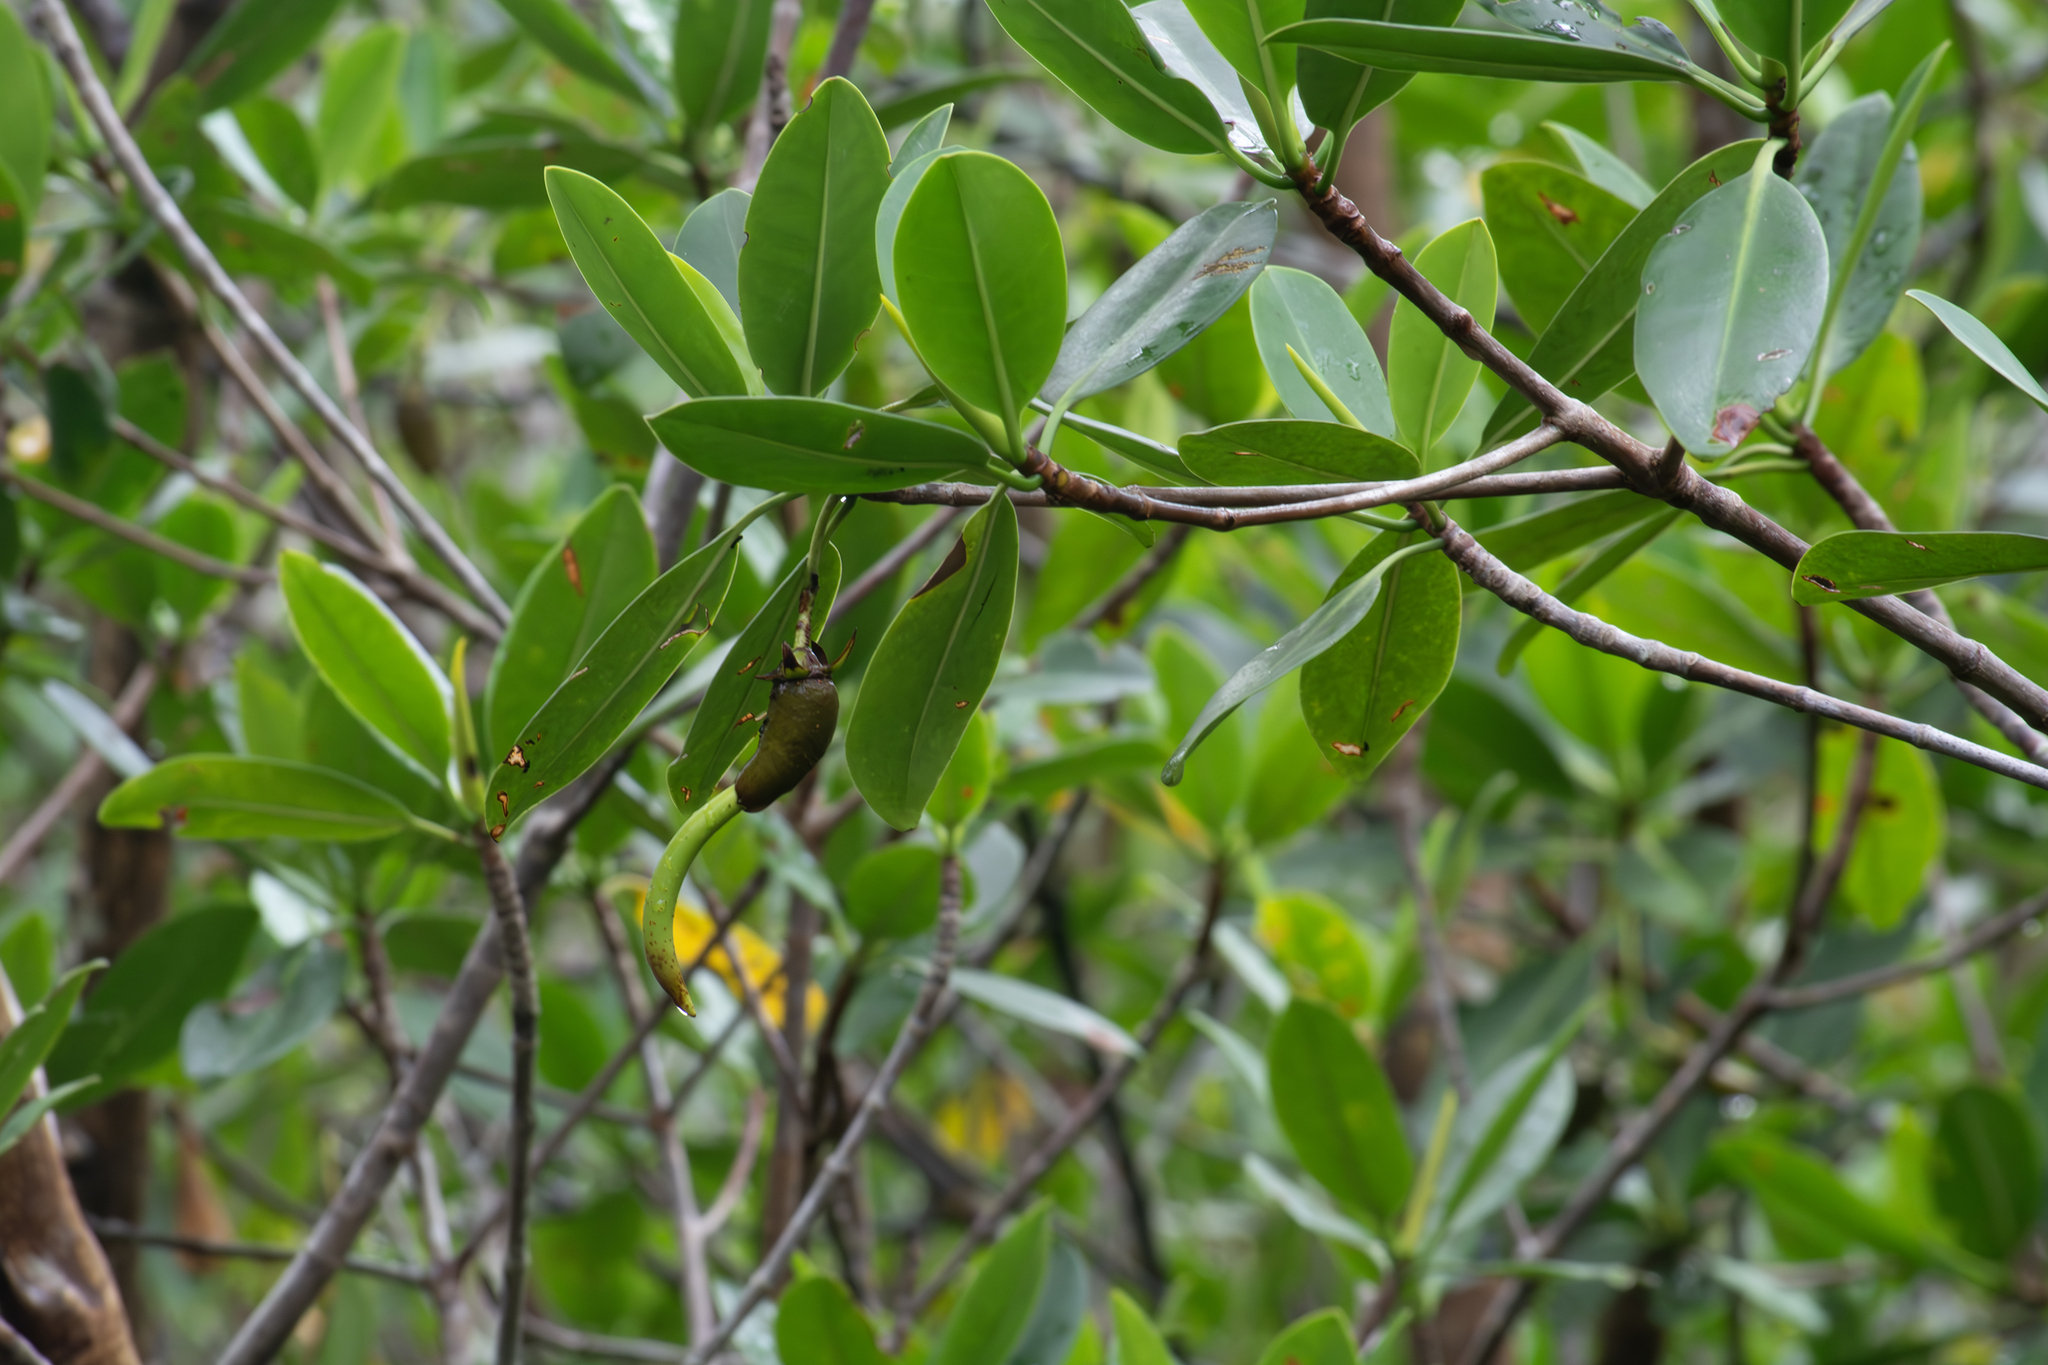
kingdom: Plantae
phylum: Tracheophyta
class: Magnoliopsida
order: Malpighiales
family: Rhizophoraceae
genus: Rhizophora
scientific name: Rhizophora mangle
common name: Red mangrove
